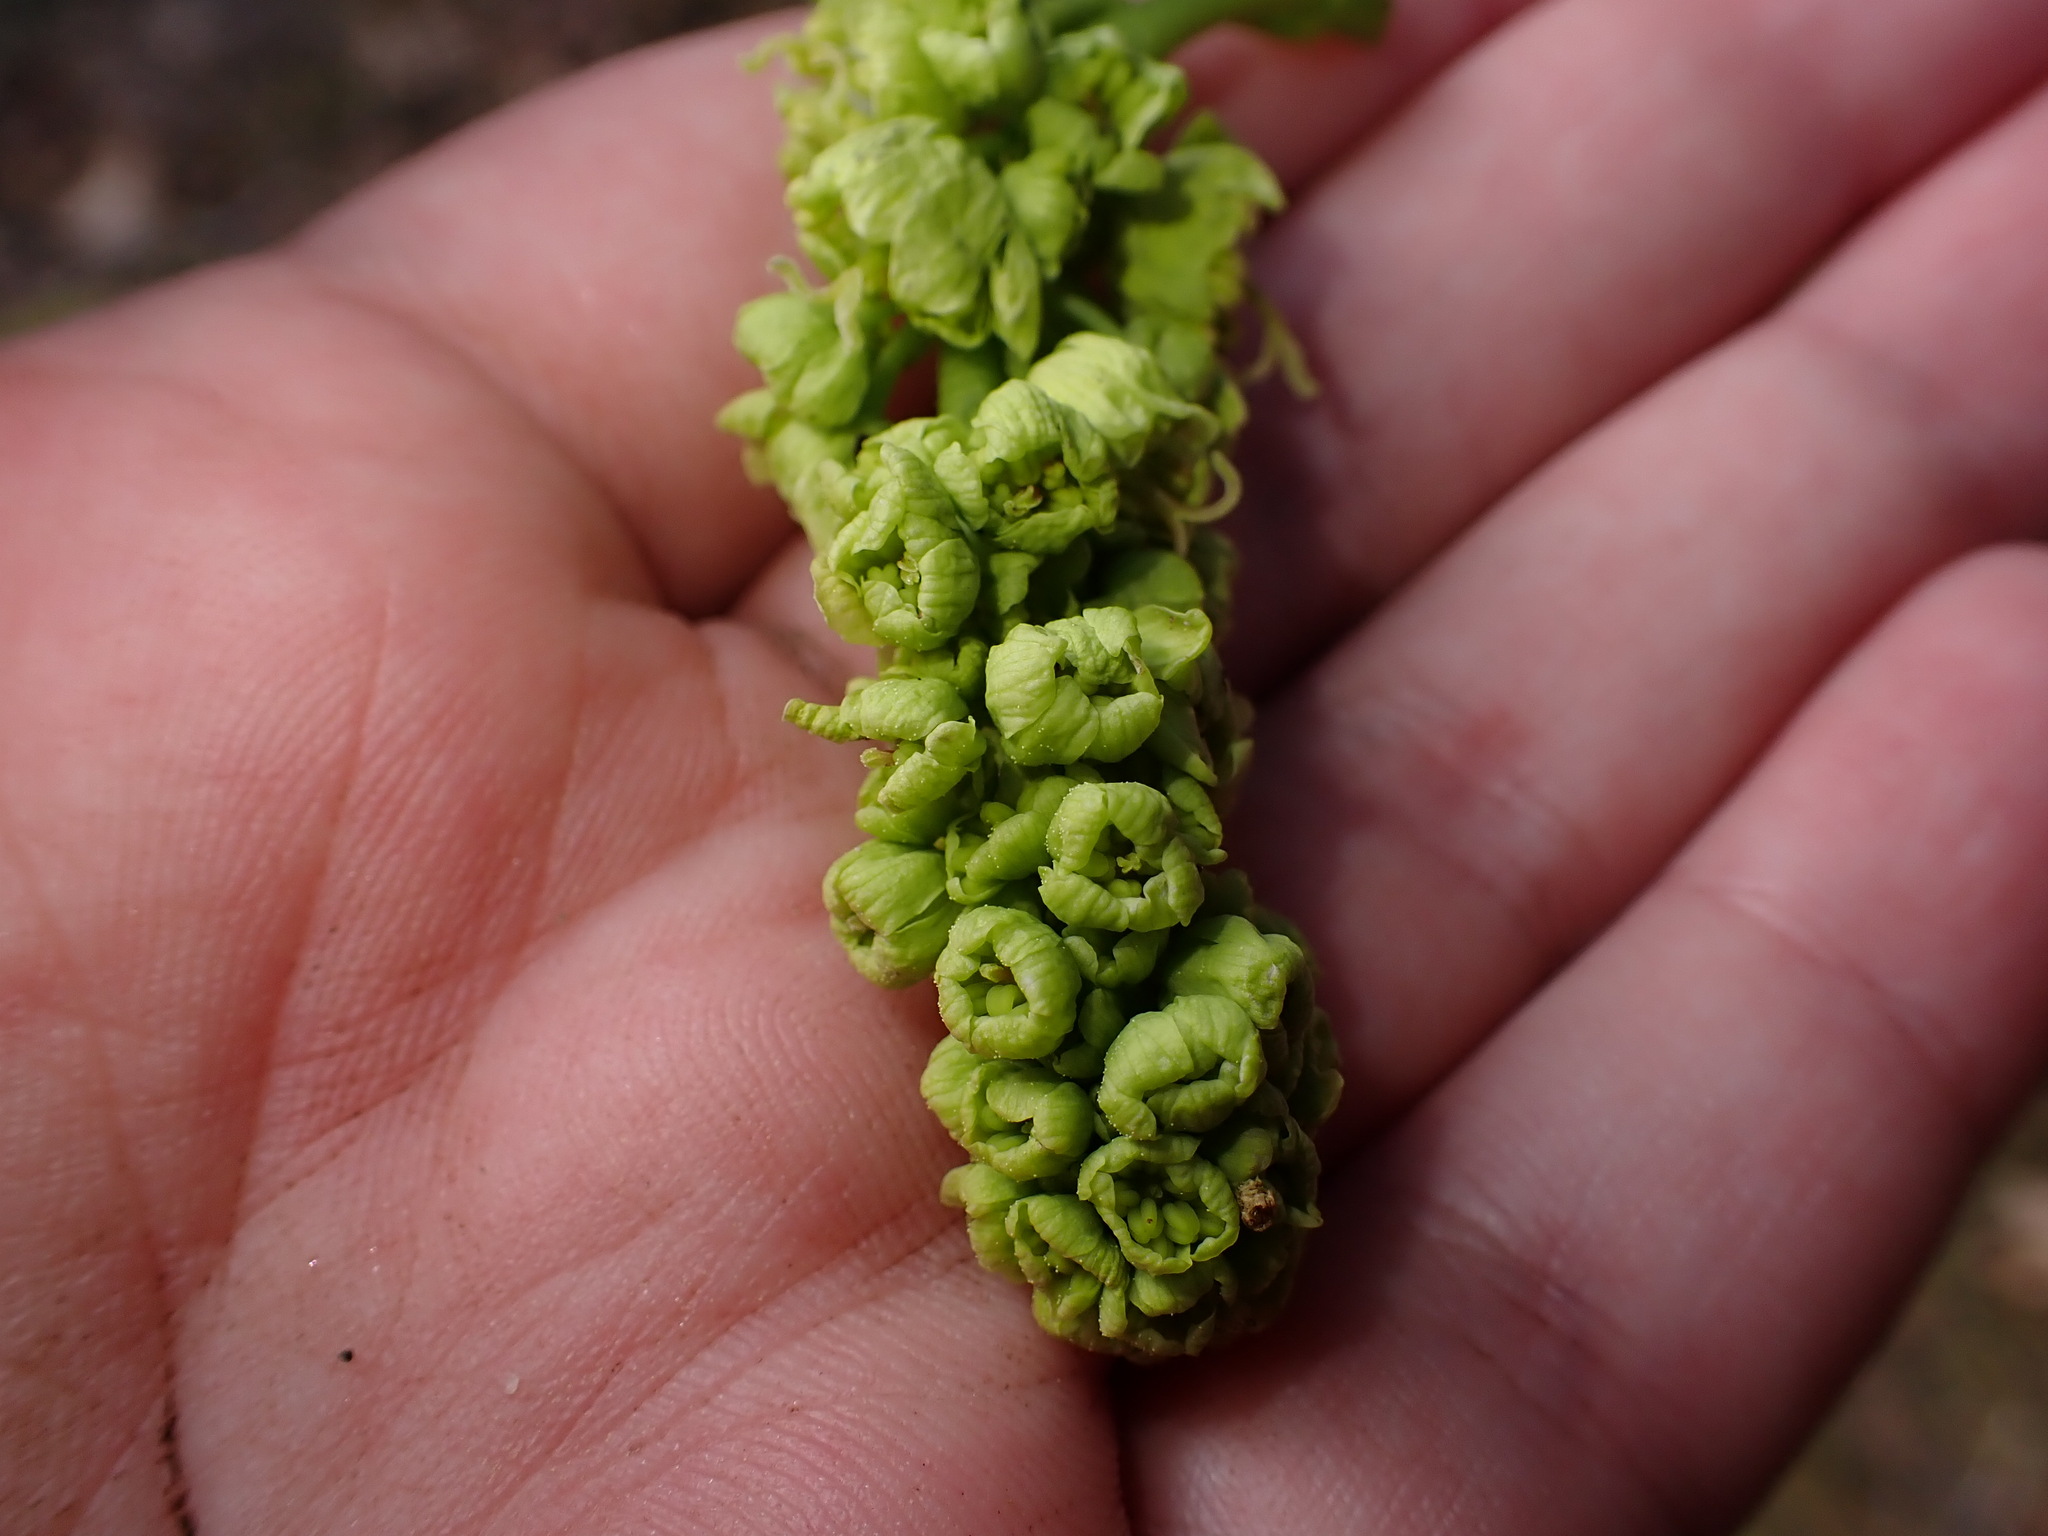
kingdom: Plantae
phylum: Tracheophyta
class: Magnoliopsida
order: Sapindales
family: Sapindaceae
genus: Acer
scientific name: Acer macrophyllum
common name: Oregon maple
